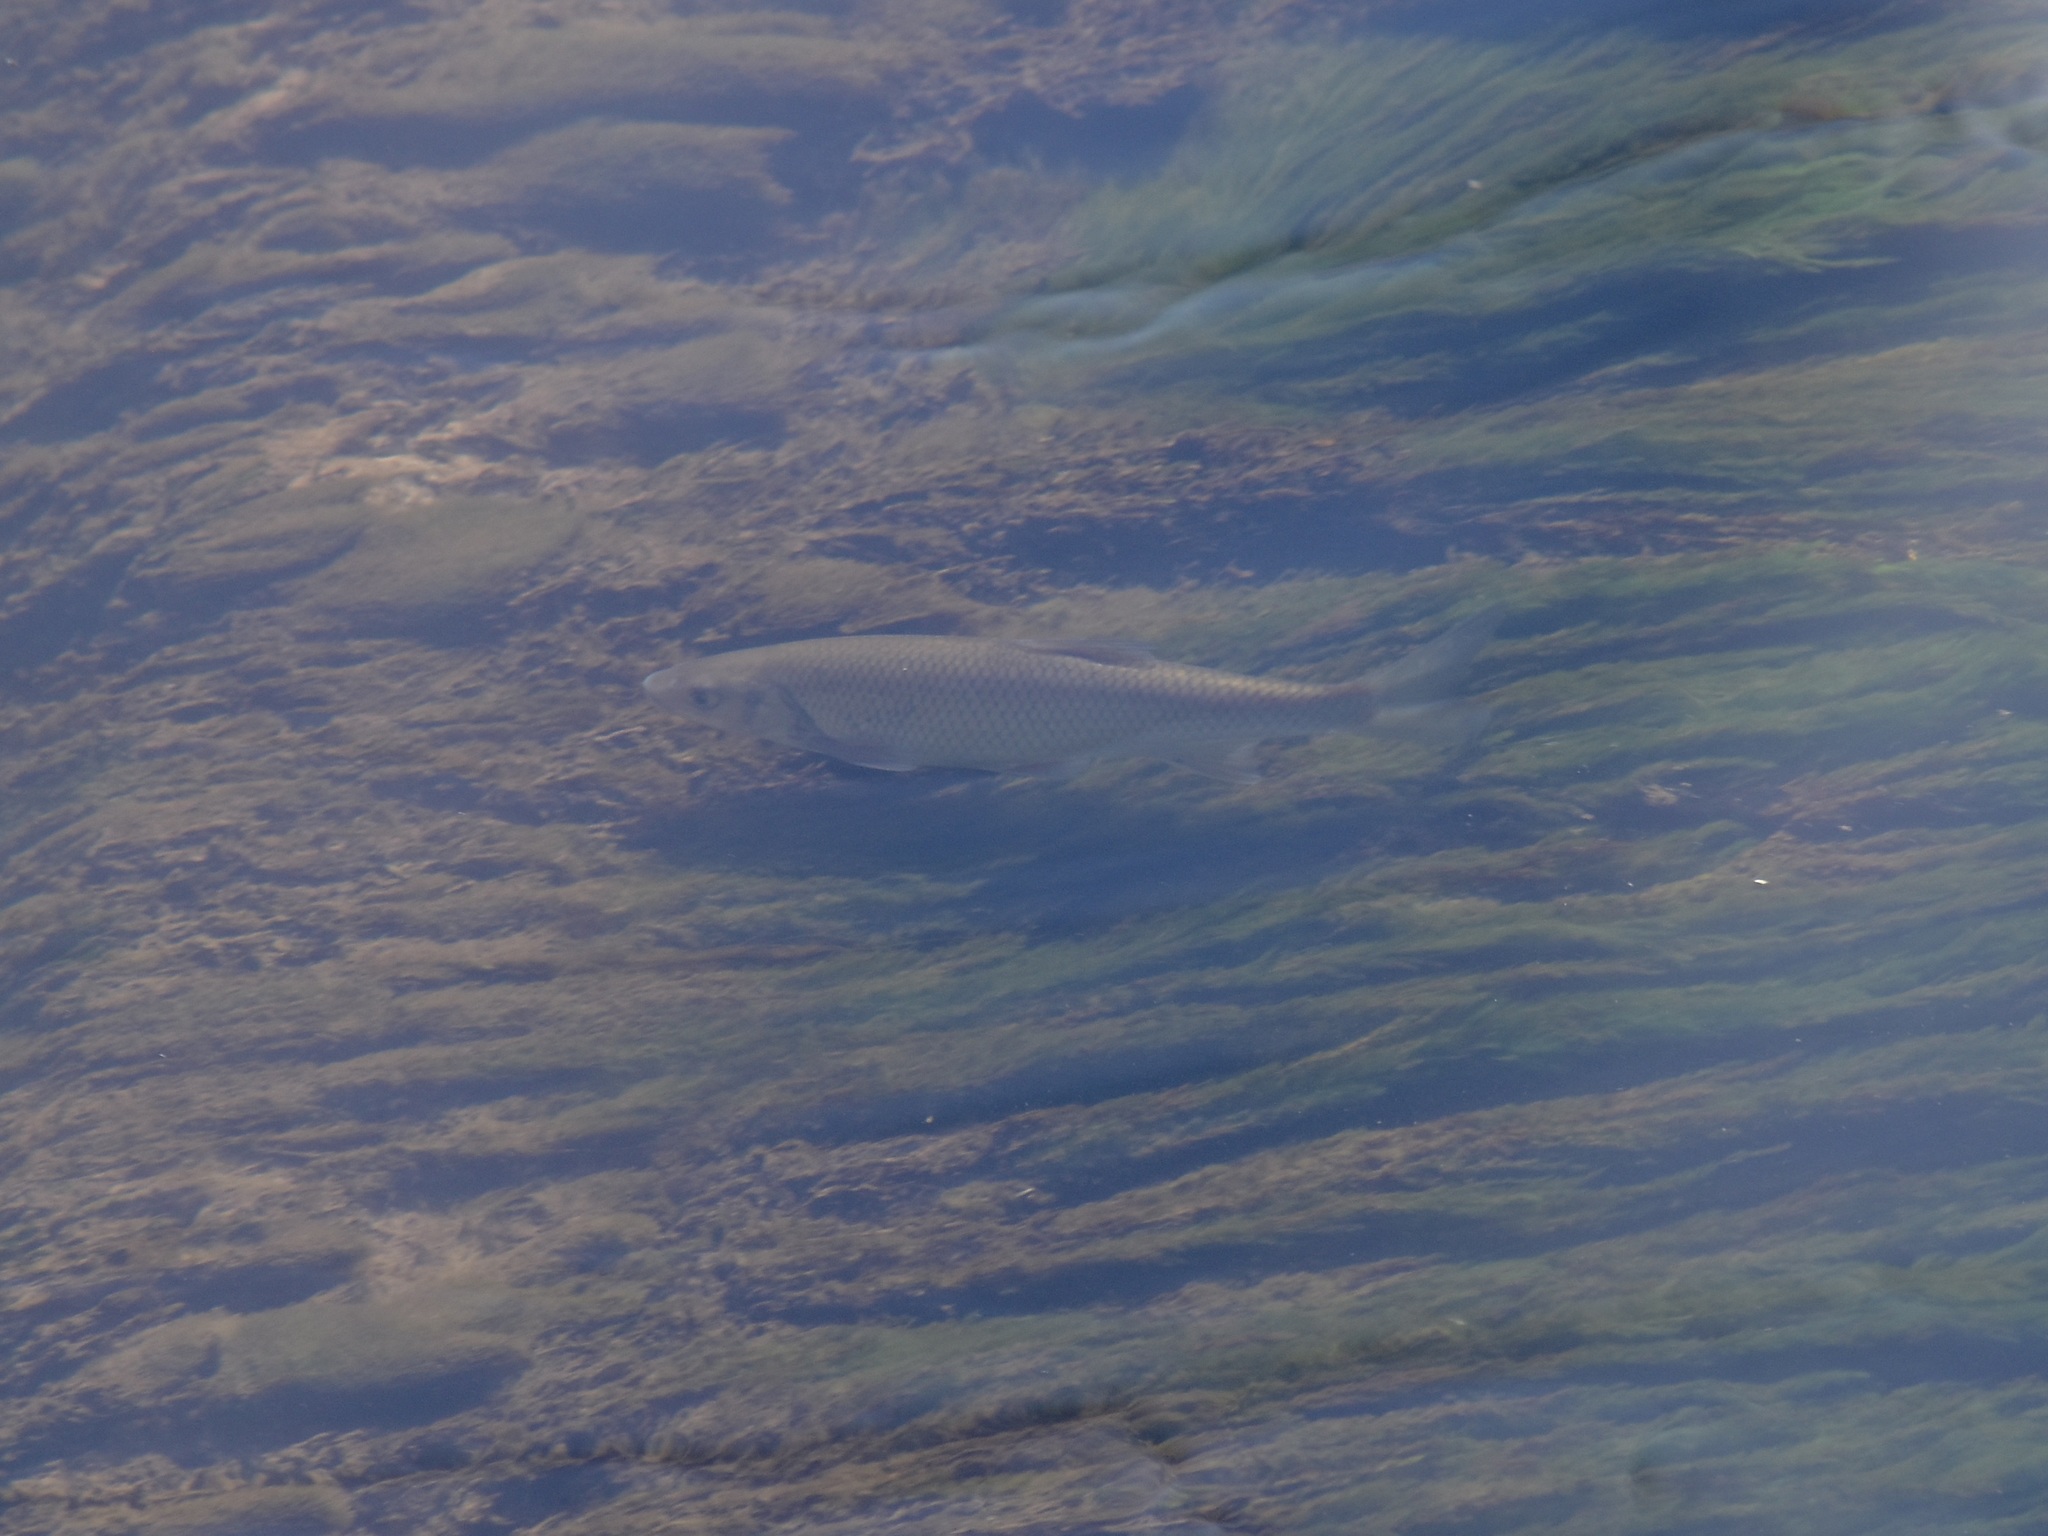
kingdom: Animalia
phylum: Chordata
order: Cypriniformes
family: Cyprinidae
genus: Squalius
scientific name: Squalius cephalus
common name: Chub
